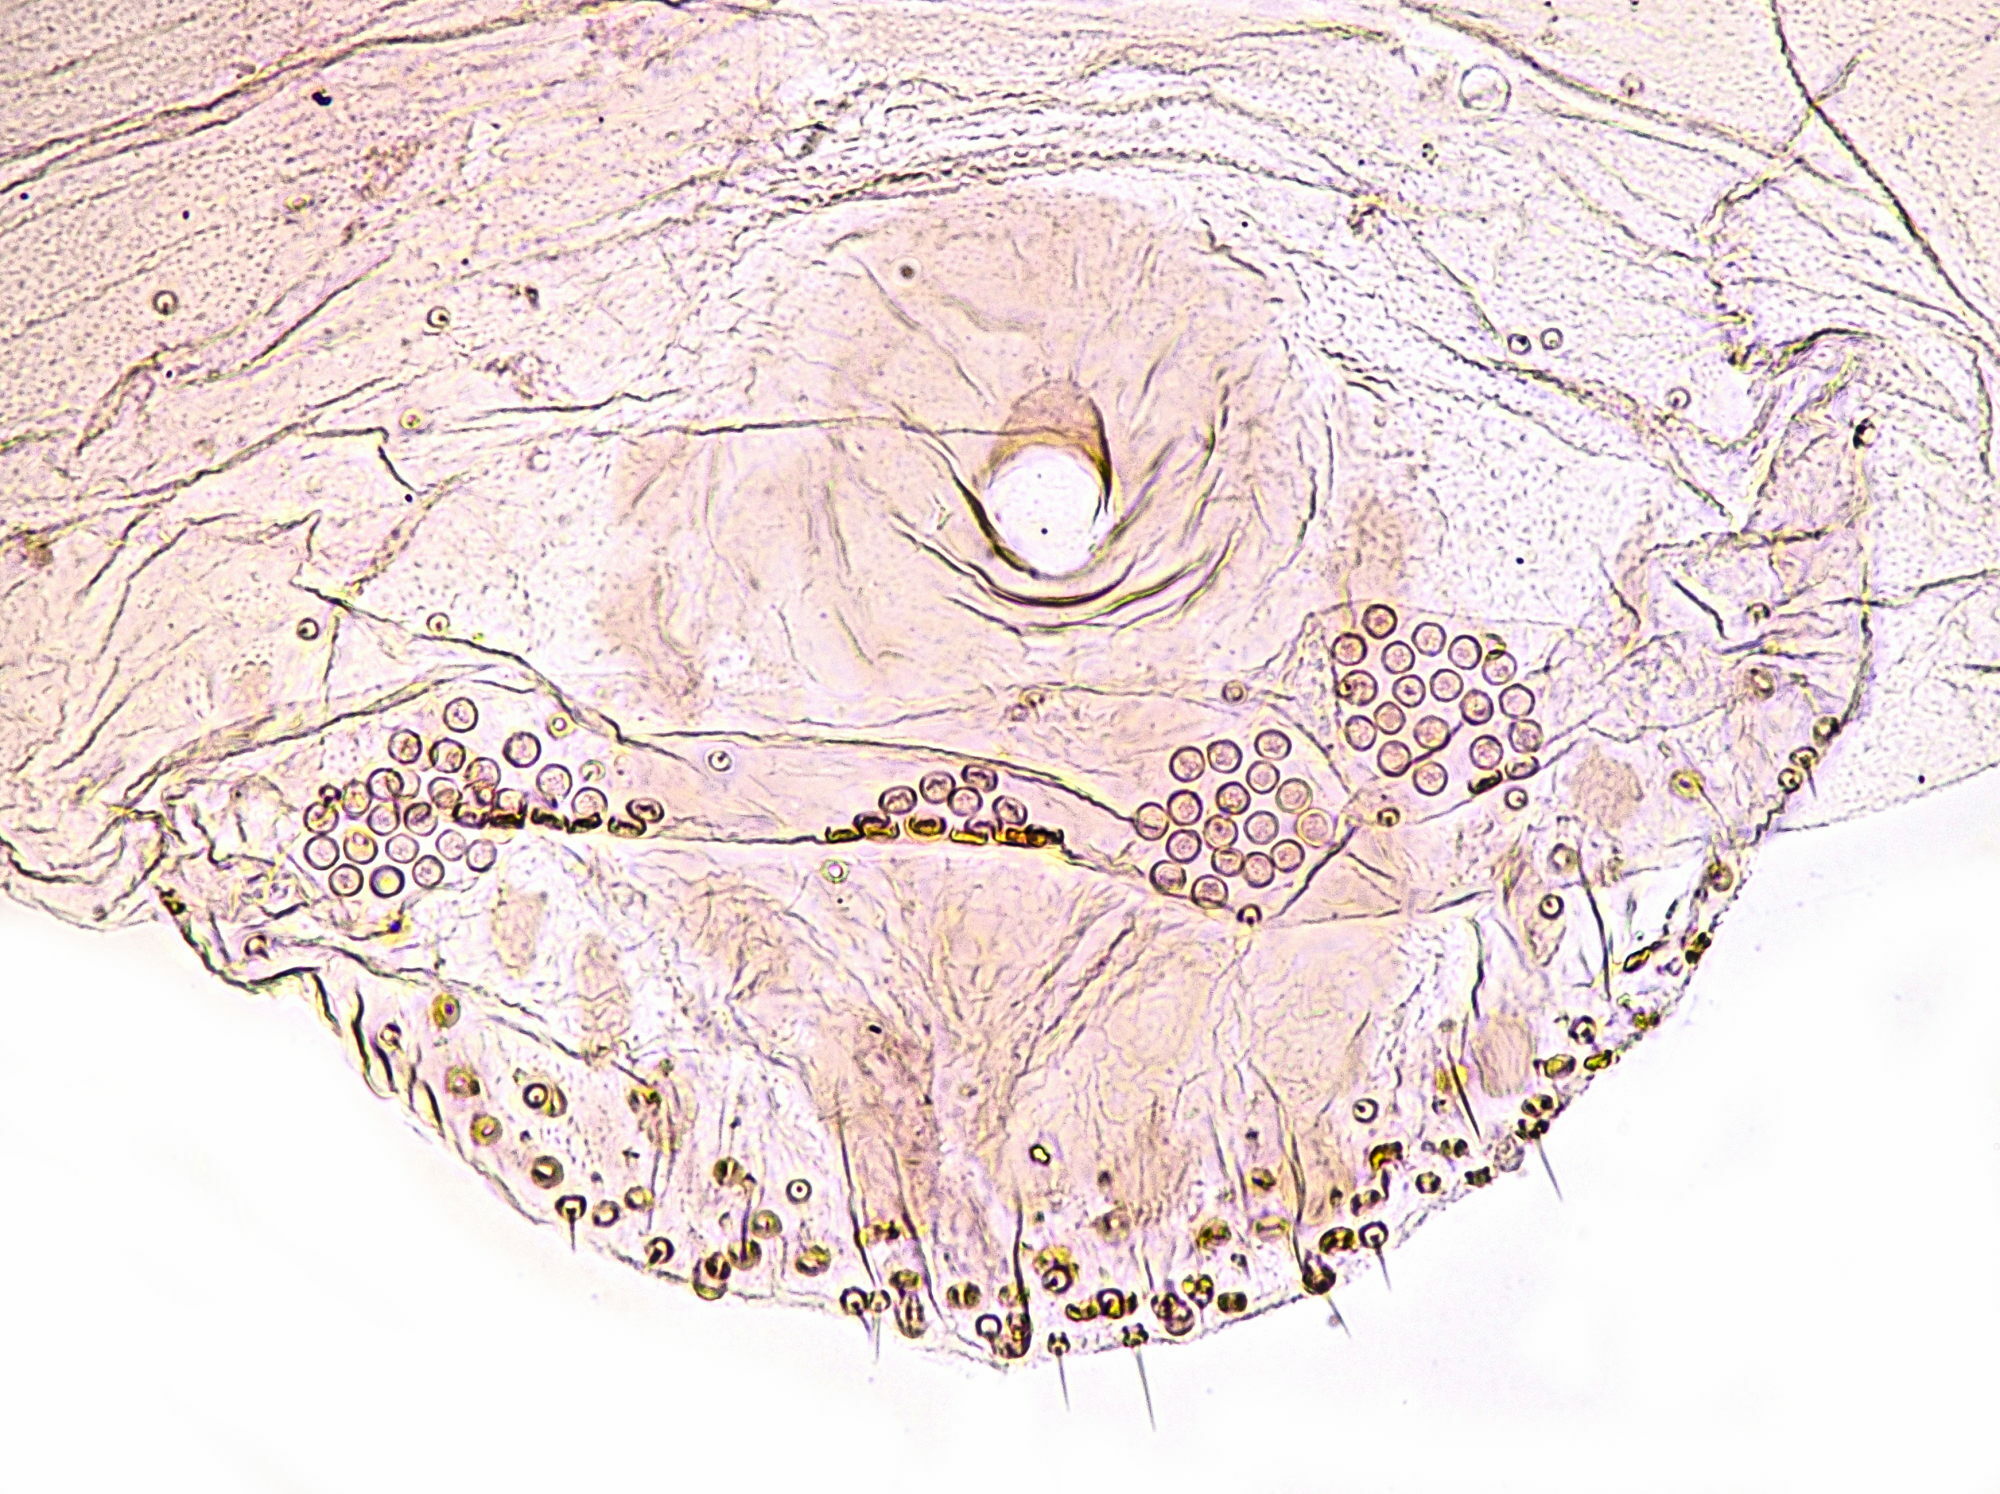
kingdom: Animalia
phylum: Arthropoda
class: Insecta
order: Hemiptera
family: Diaspididae
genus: Leucaspis
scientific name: Leucaspis lowi
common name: Hartig's pine scale
